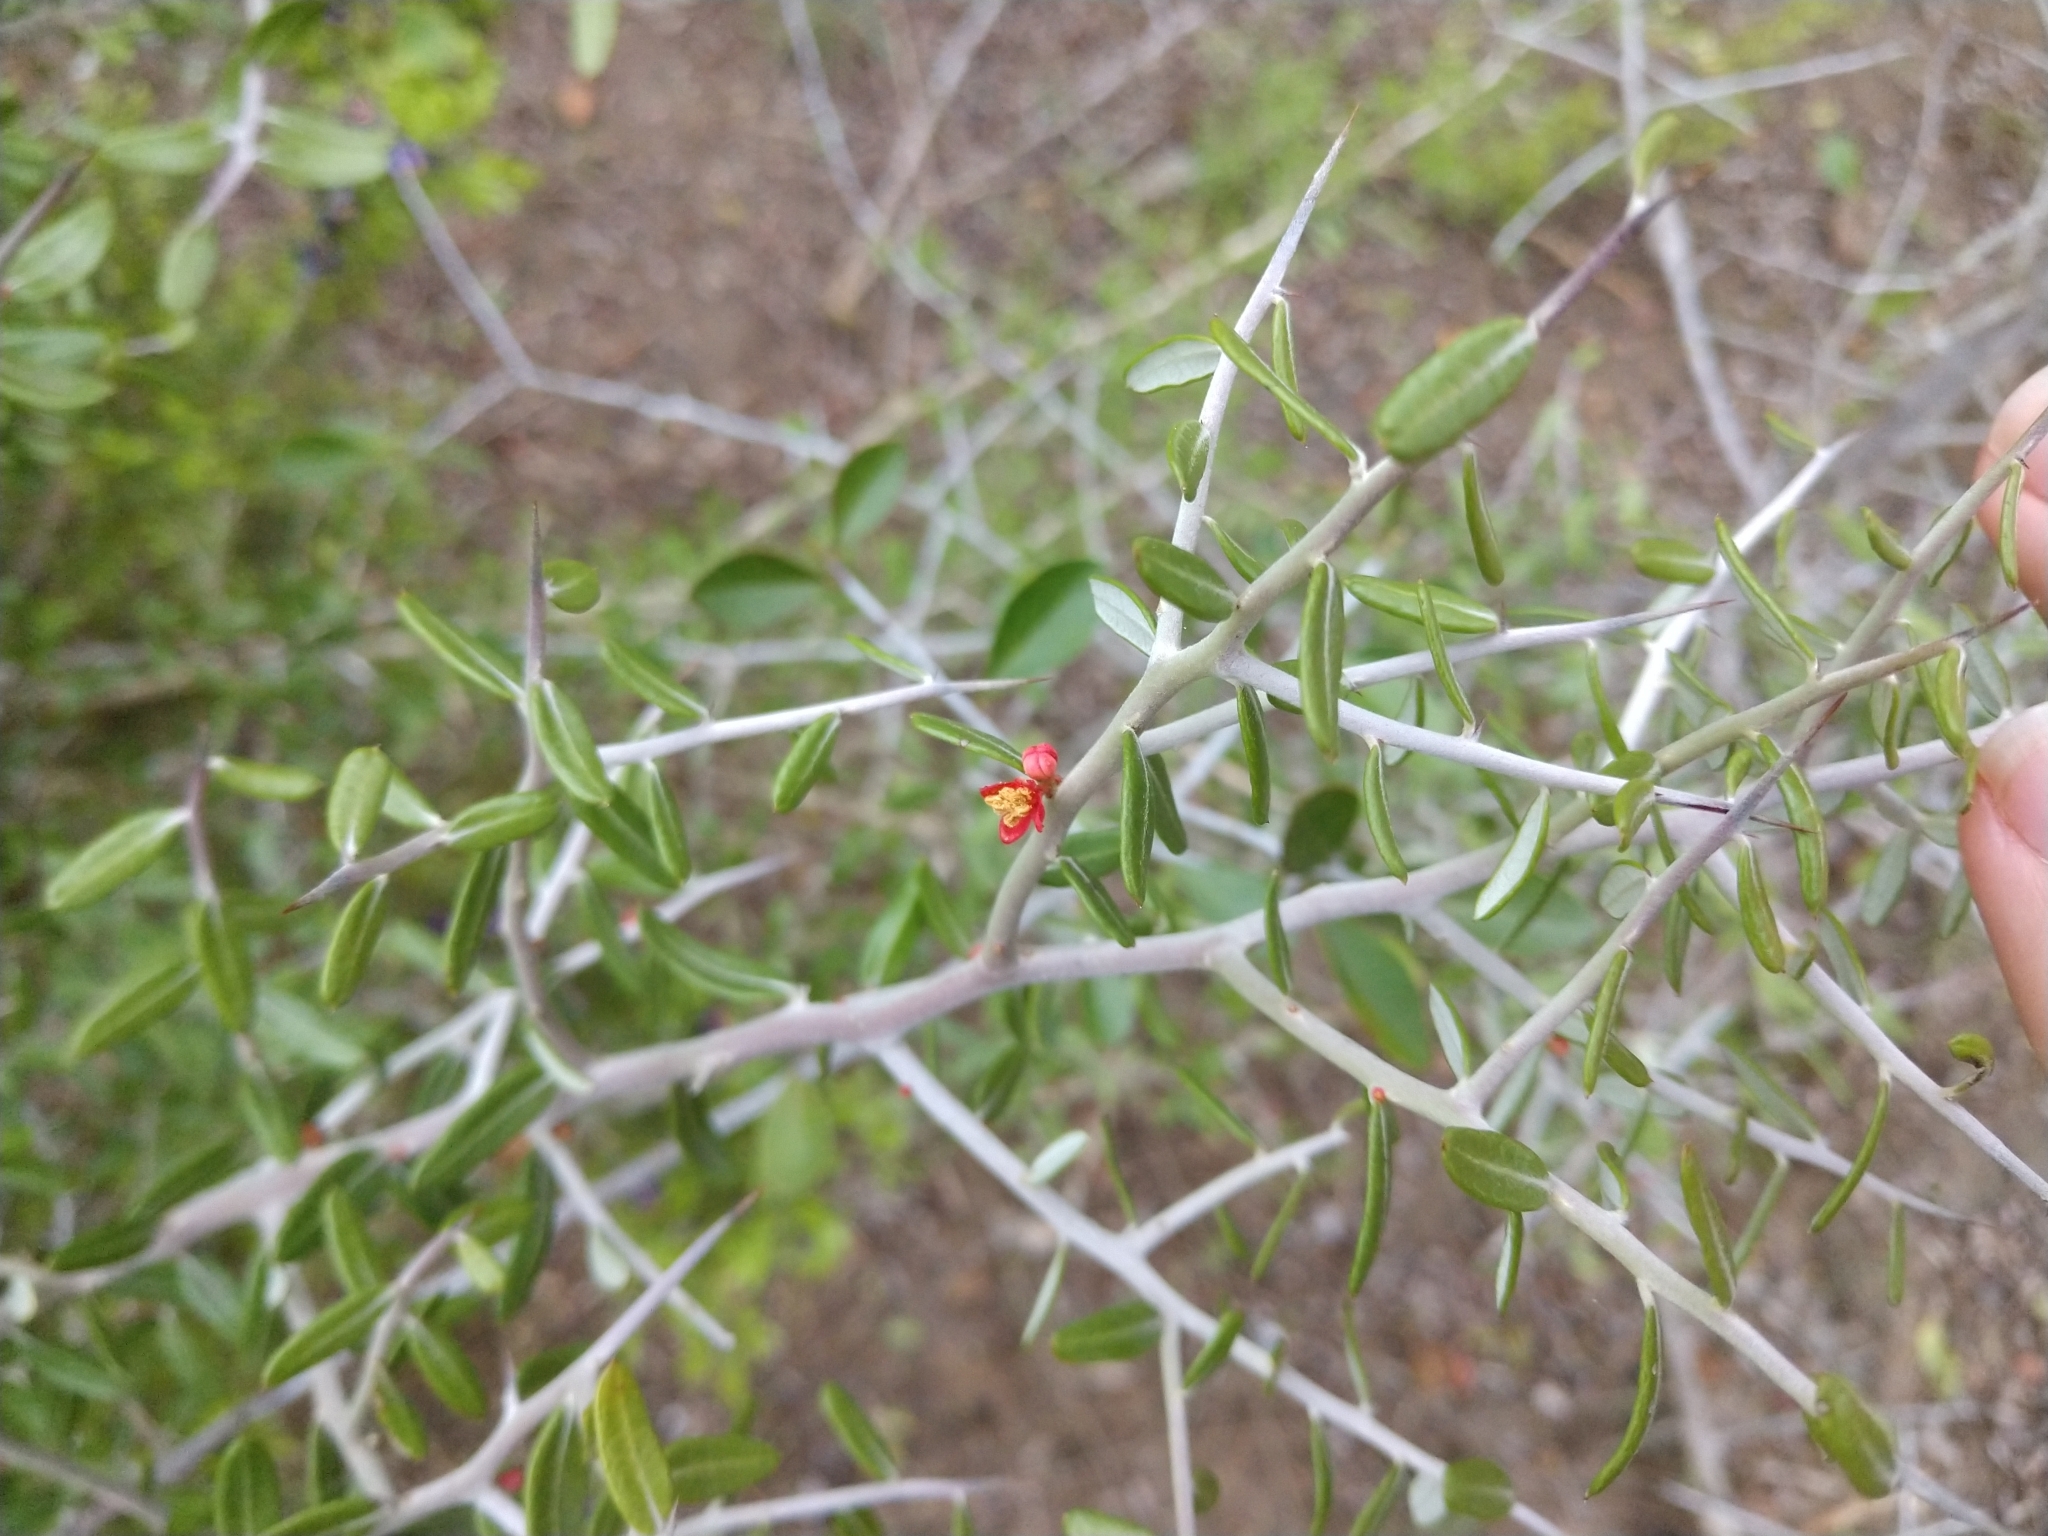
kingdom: Plantae
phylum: Tracheophyta
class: Magnoliopsida
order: Sapindales
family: Simaroubaceae
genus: Castela
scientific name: Castela erecta
